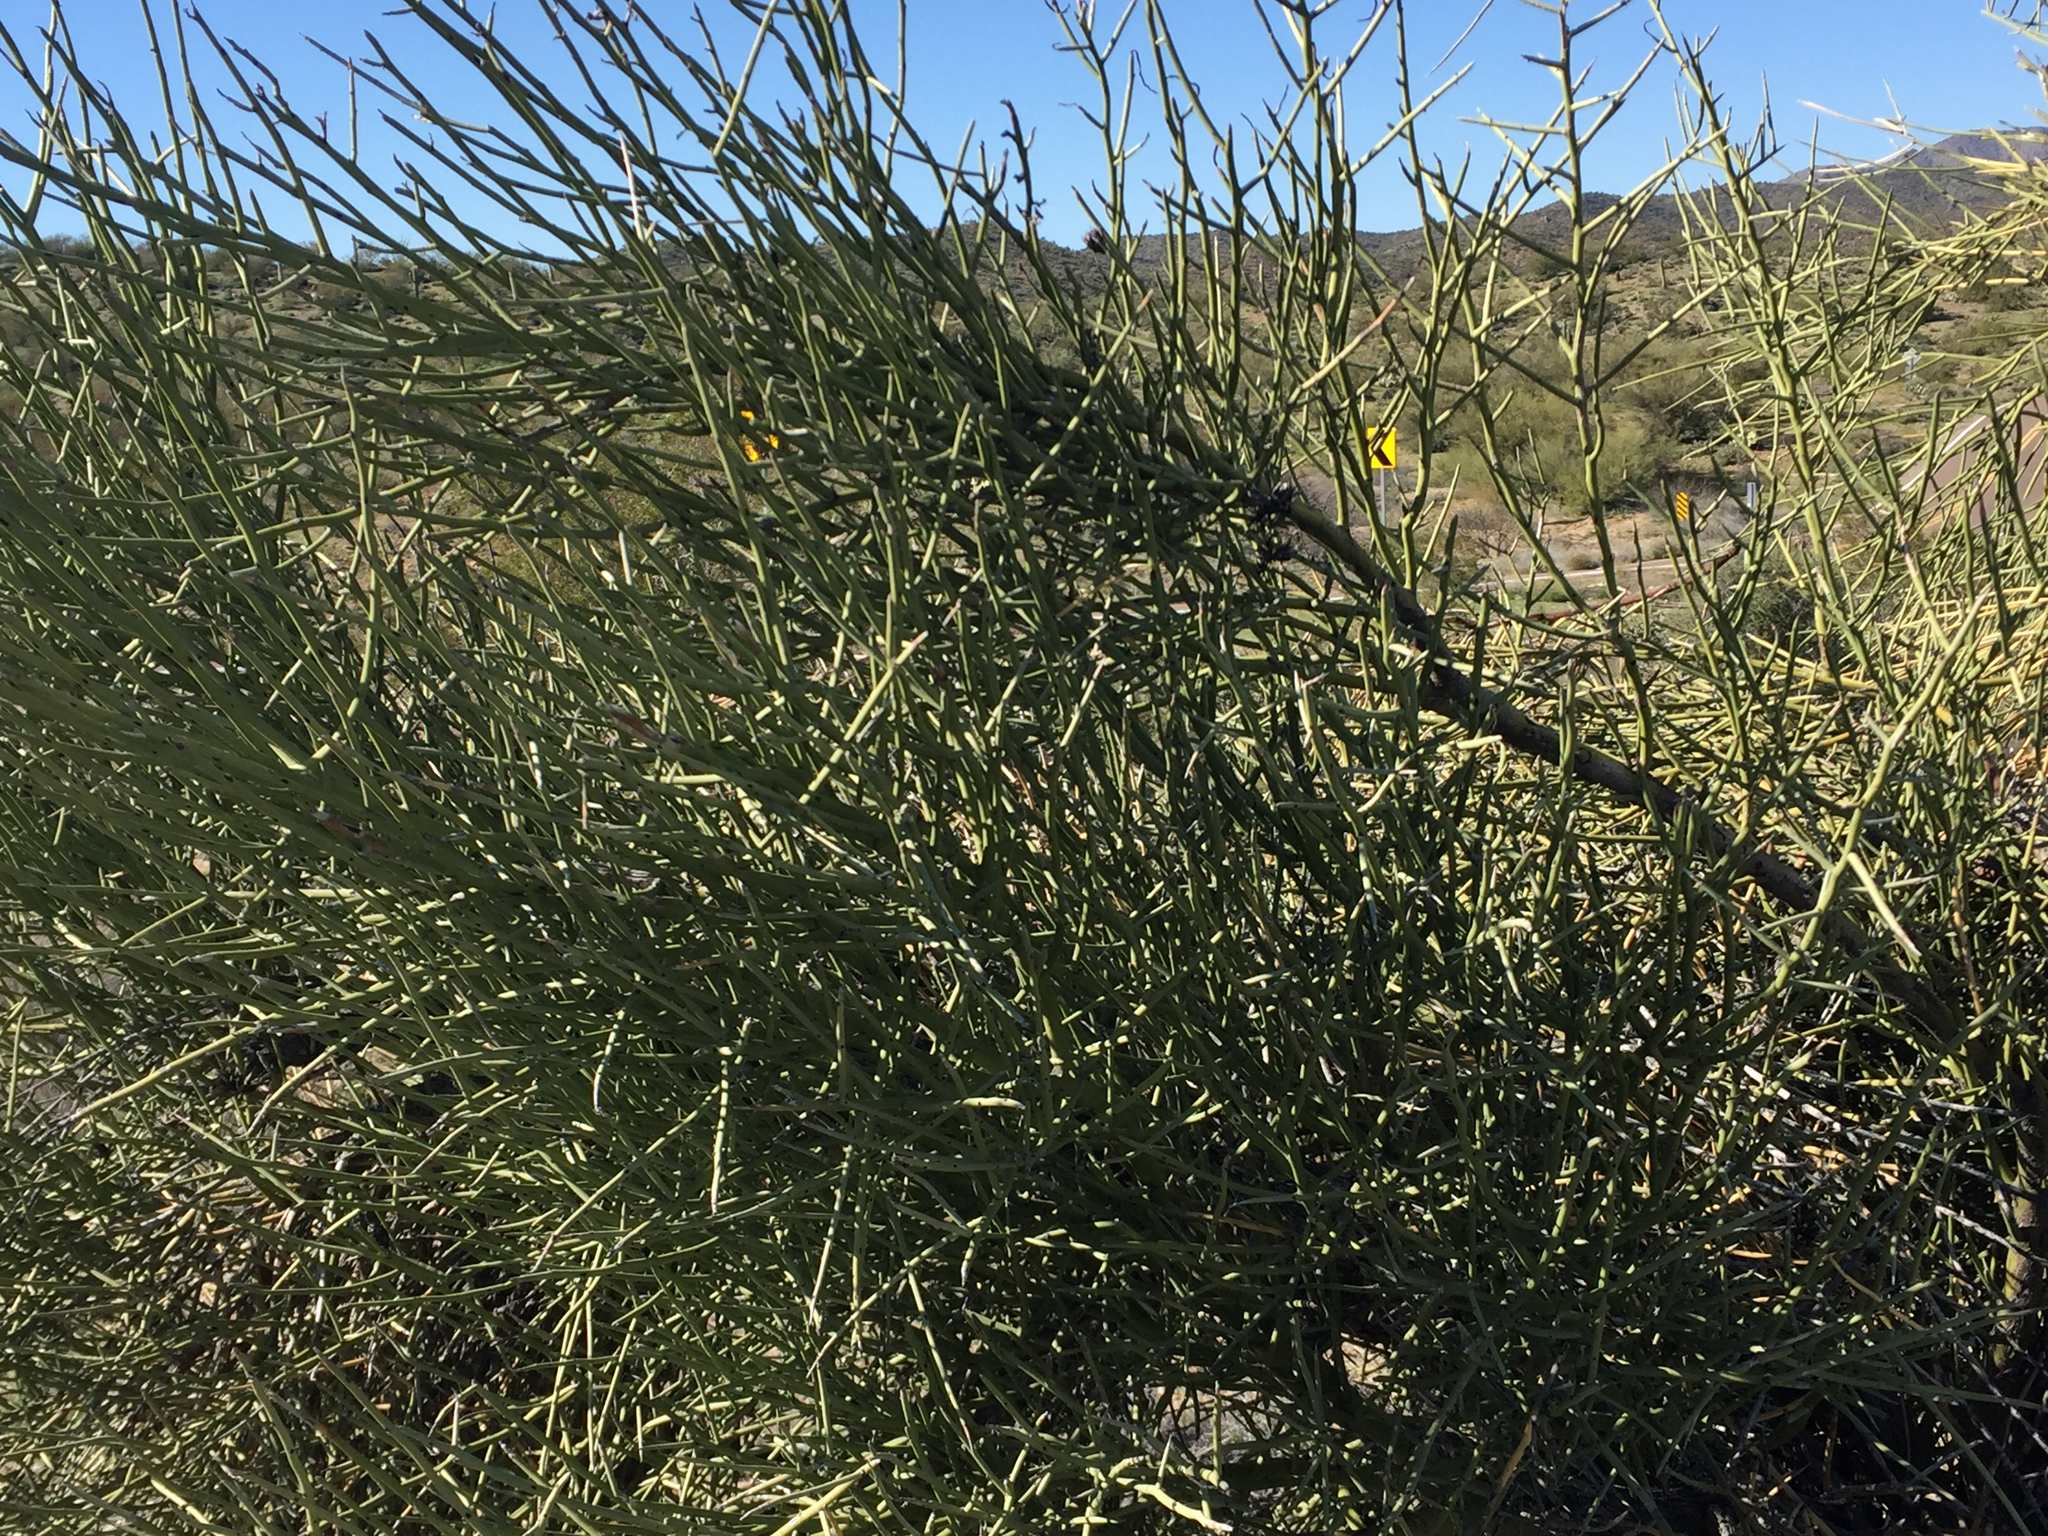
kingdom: Plantae
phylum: Tracheophyta
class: Magnoliopsida
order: Celastrales
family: Celastraceae
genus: Canotia
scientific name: Canotia holacantha
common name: Crucifixion thorns
